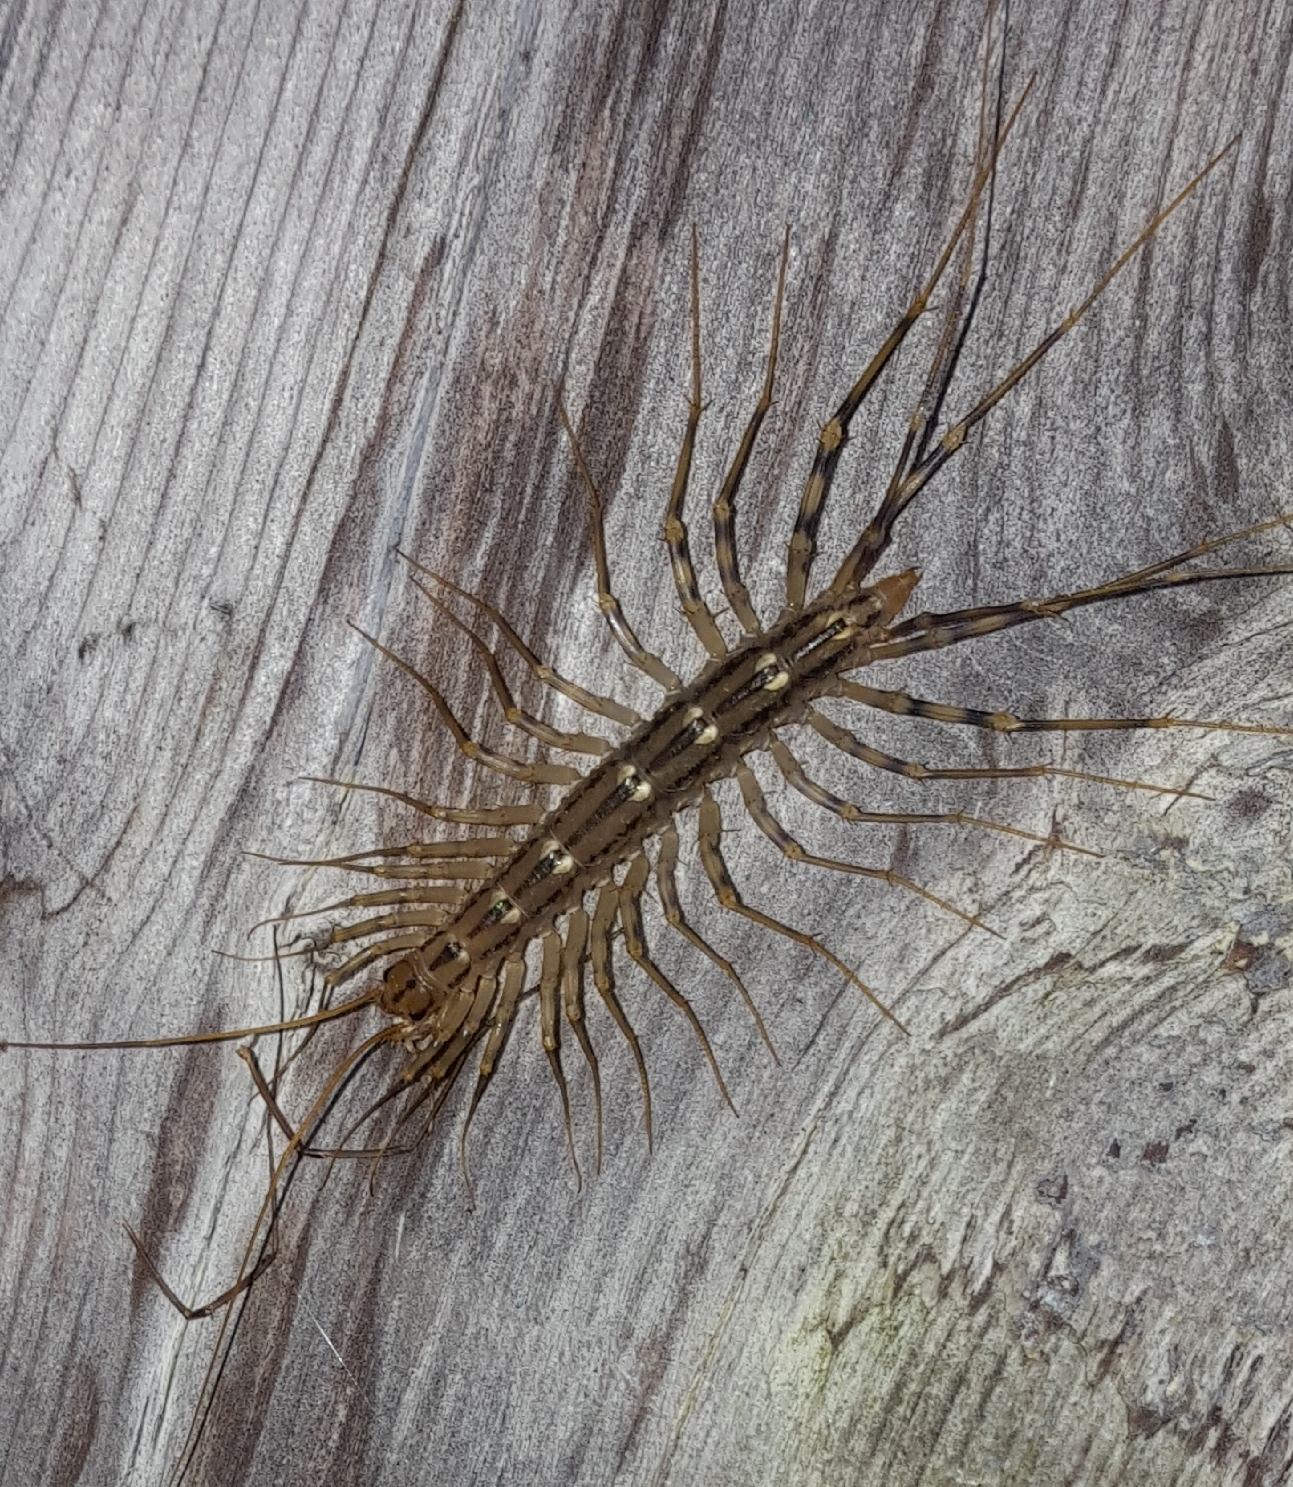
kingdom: Animalia
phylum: Arthropoda
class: Chilopoda
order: Scutigeromorpha
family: Scutigeridae
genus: Scutigera
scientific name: Scutigera coleoptrata
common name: House centipede
